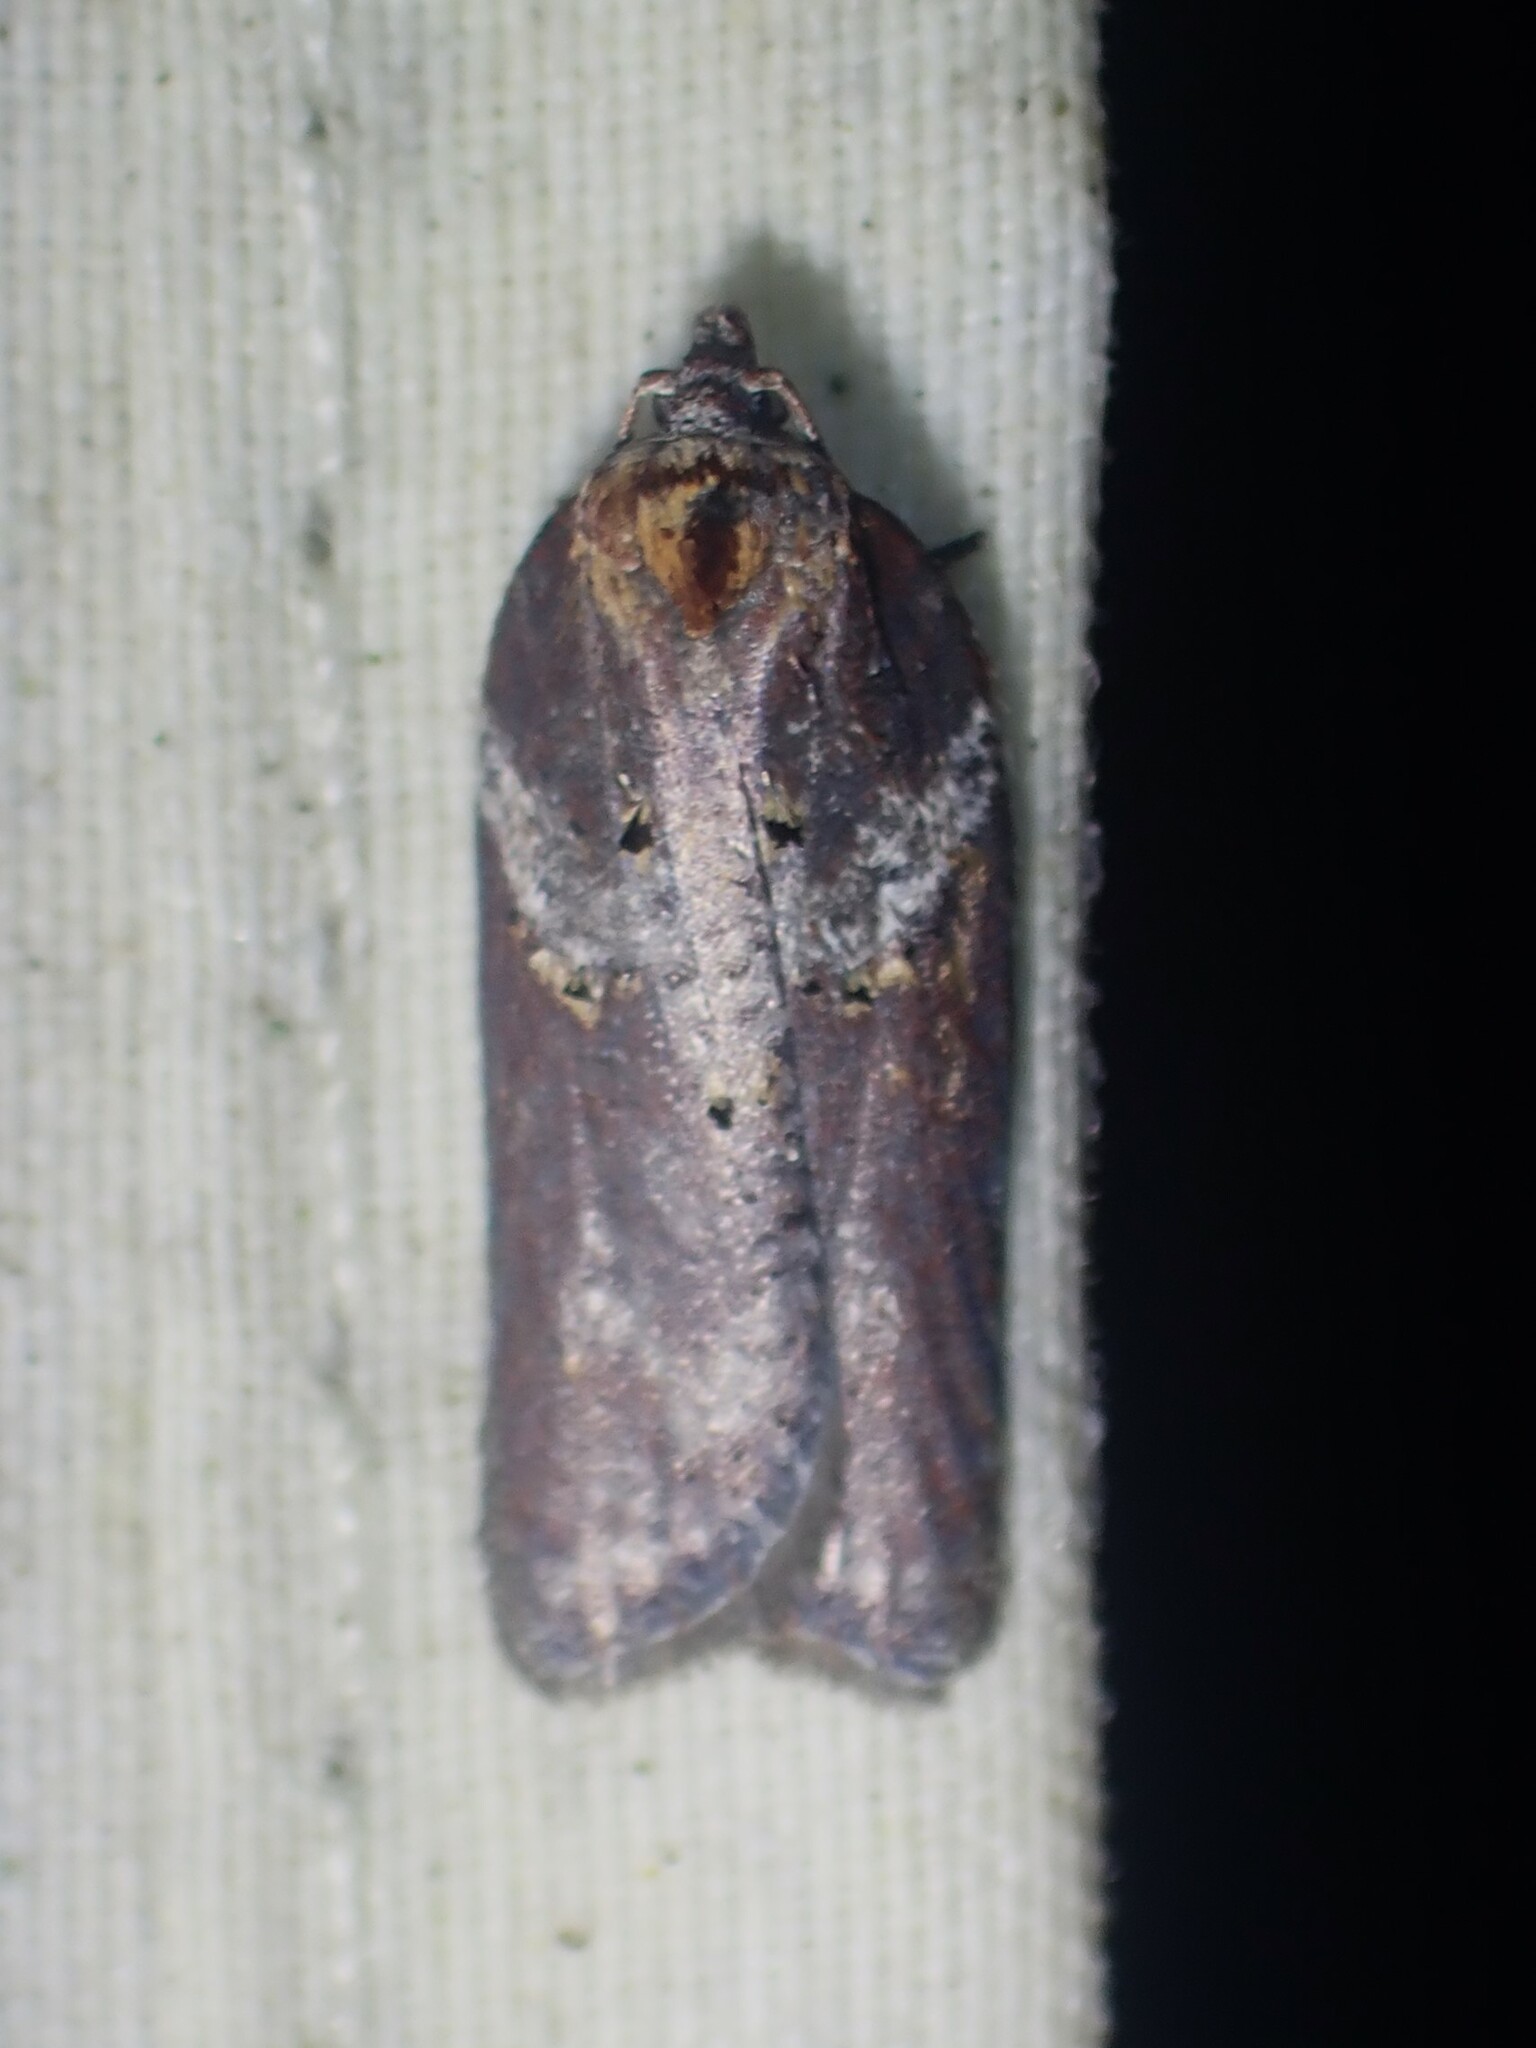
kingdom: Animalia
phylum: Arthropoda
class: Insecta
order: Lepidoptera
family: Tortricidae
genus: Acleris
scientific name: Acleris celiana
